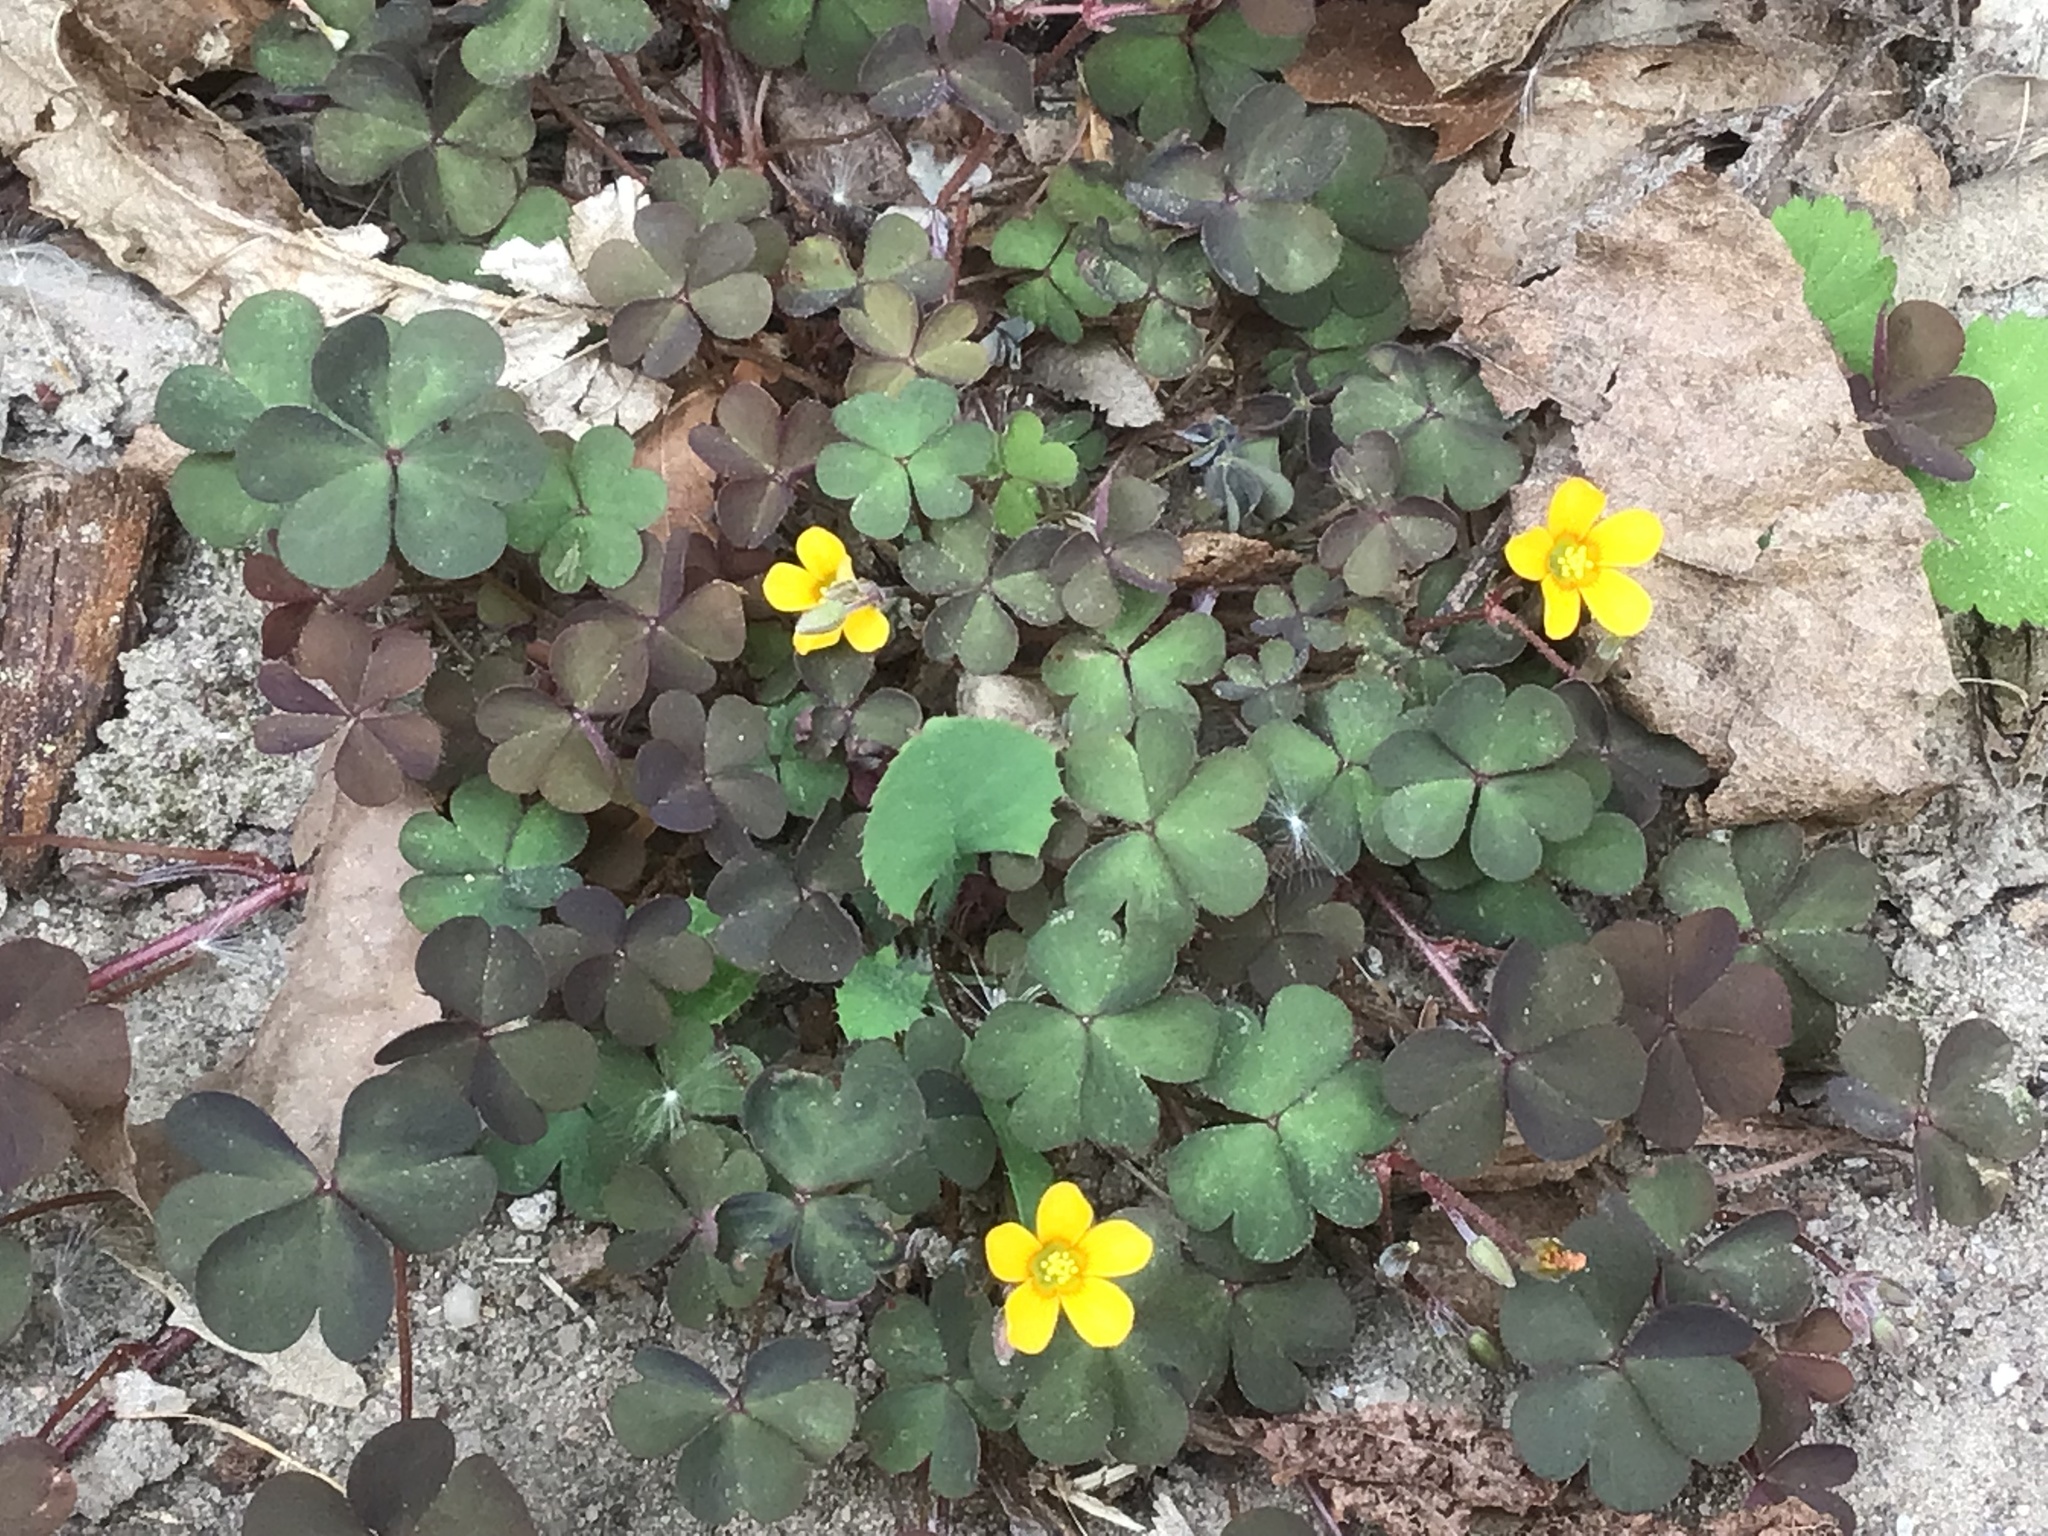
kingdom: Plantae
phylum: Tracheophyta
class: Magnoliopsida
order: Oxalidales
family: Oxalidaceae
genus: Oxalis
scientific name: Oxalis corniculata
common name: Procumbent yellow-sorrel
